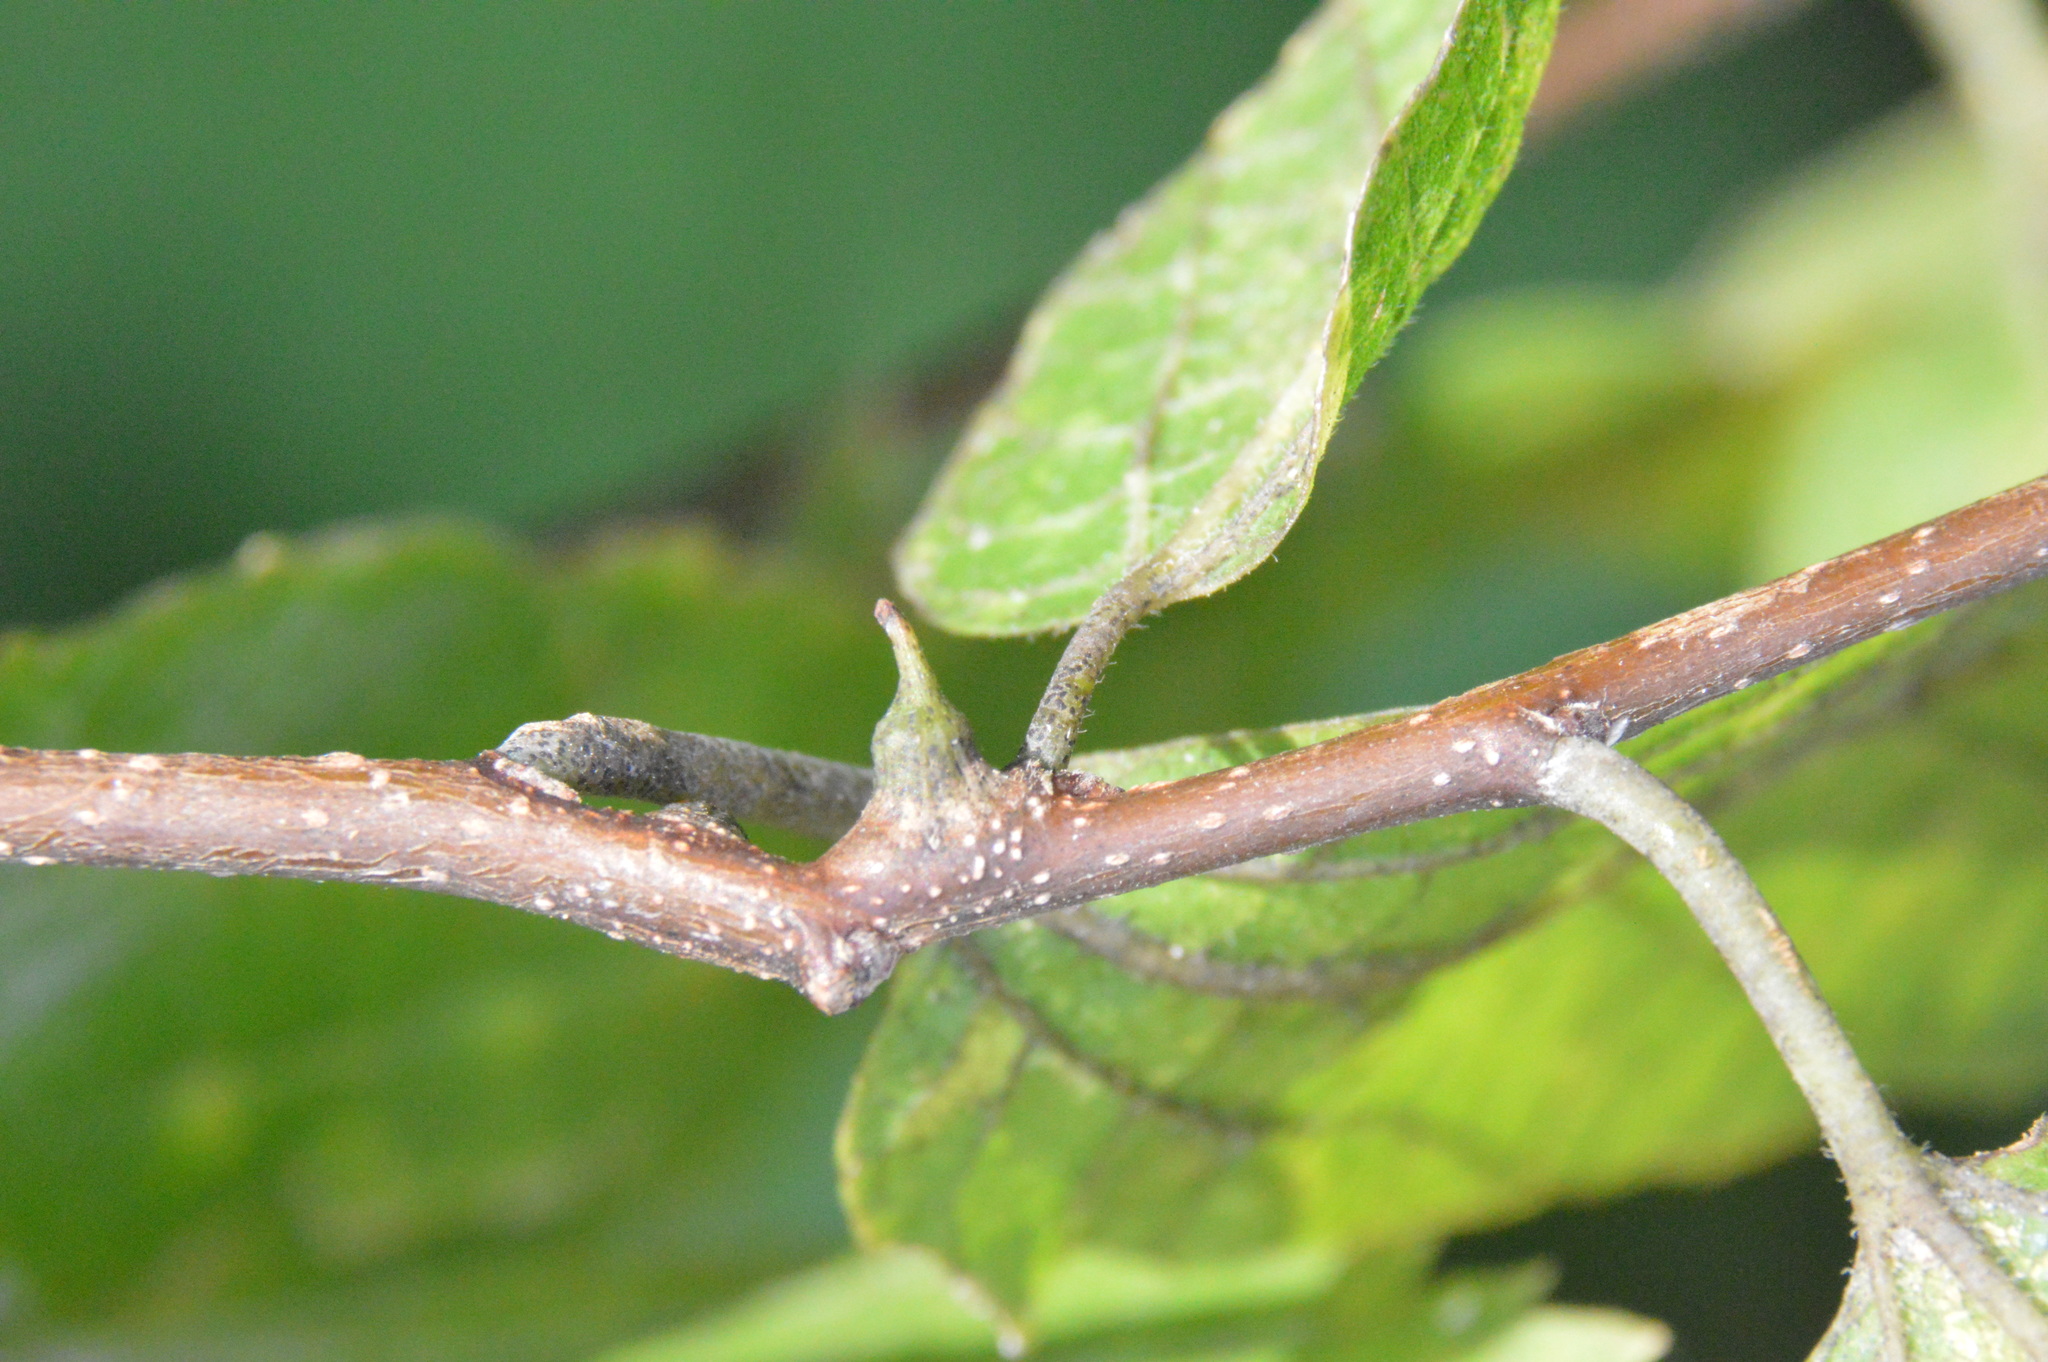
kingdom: Animalia
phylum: Arthropoda
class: Insecta
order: Diptera
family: Cecidomyiidae
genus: Celticecis
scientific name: Celticecis ramicola
